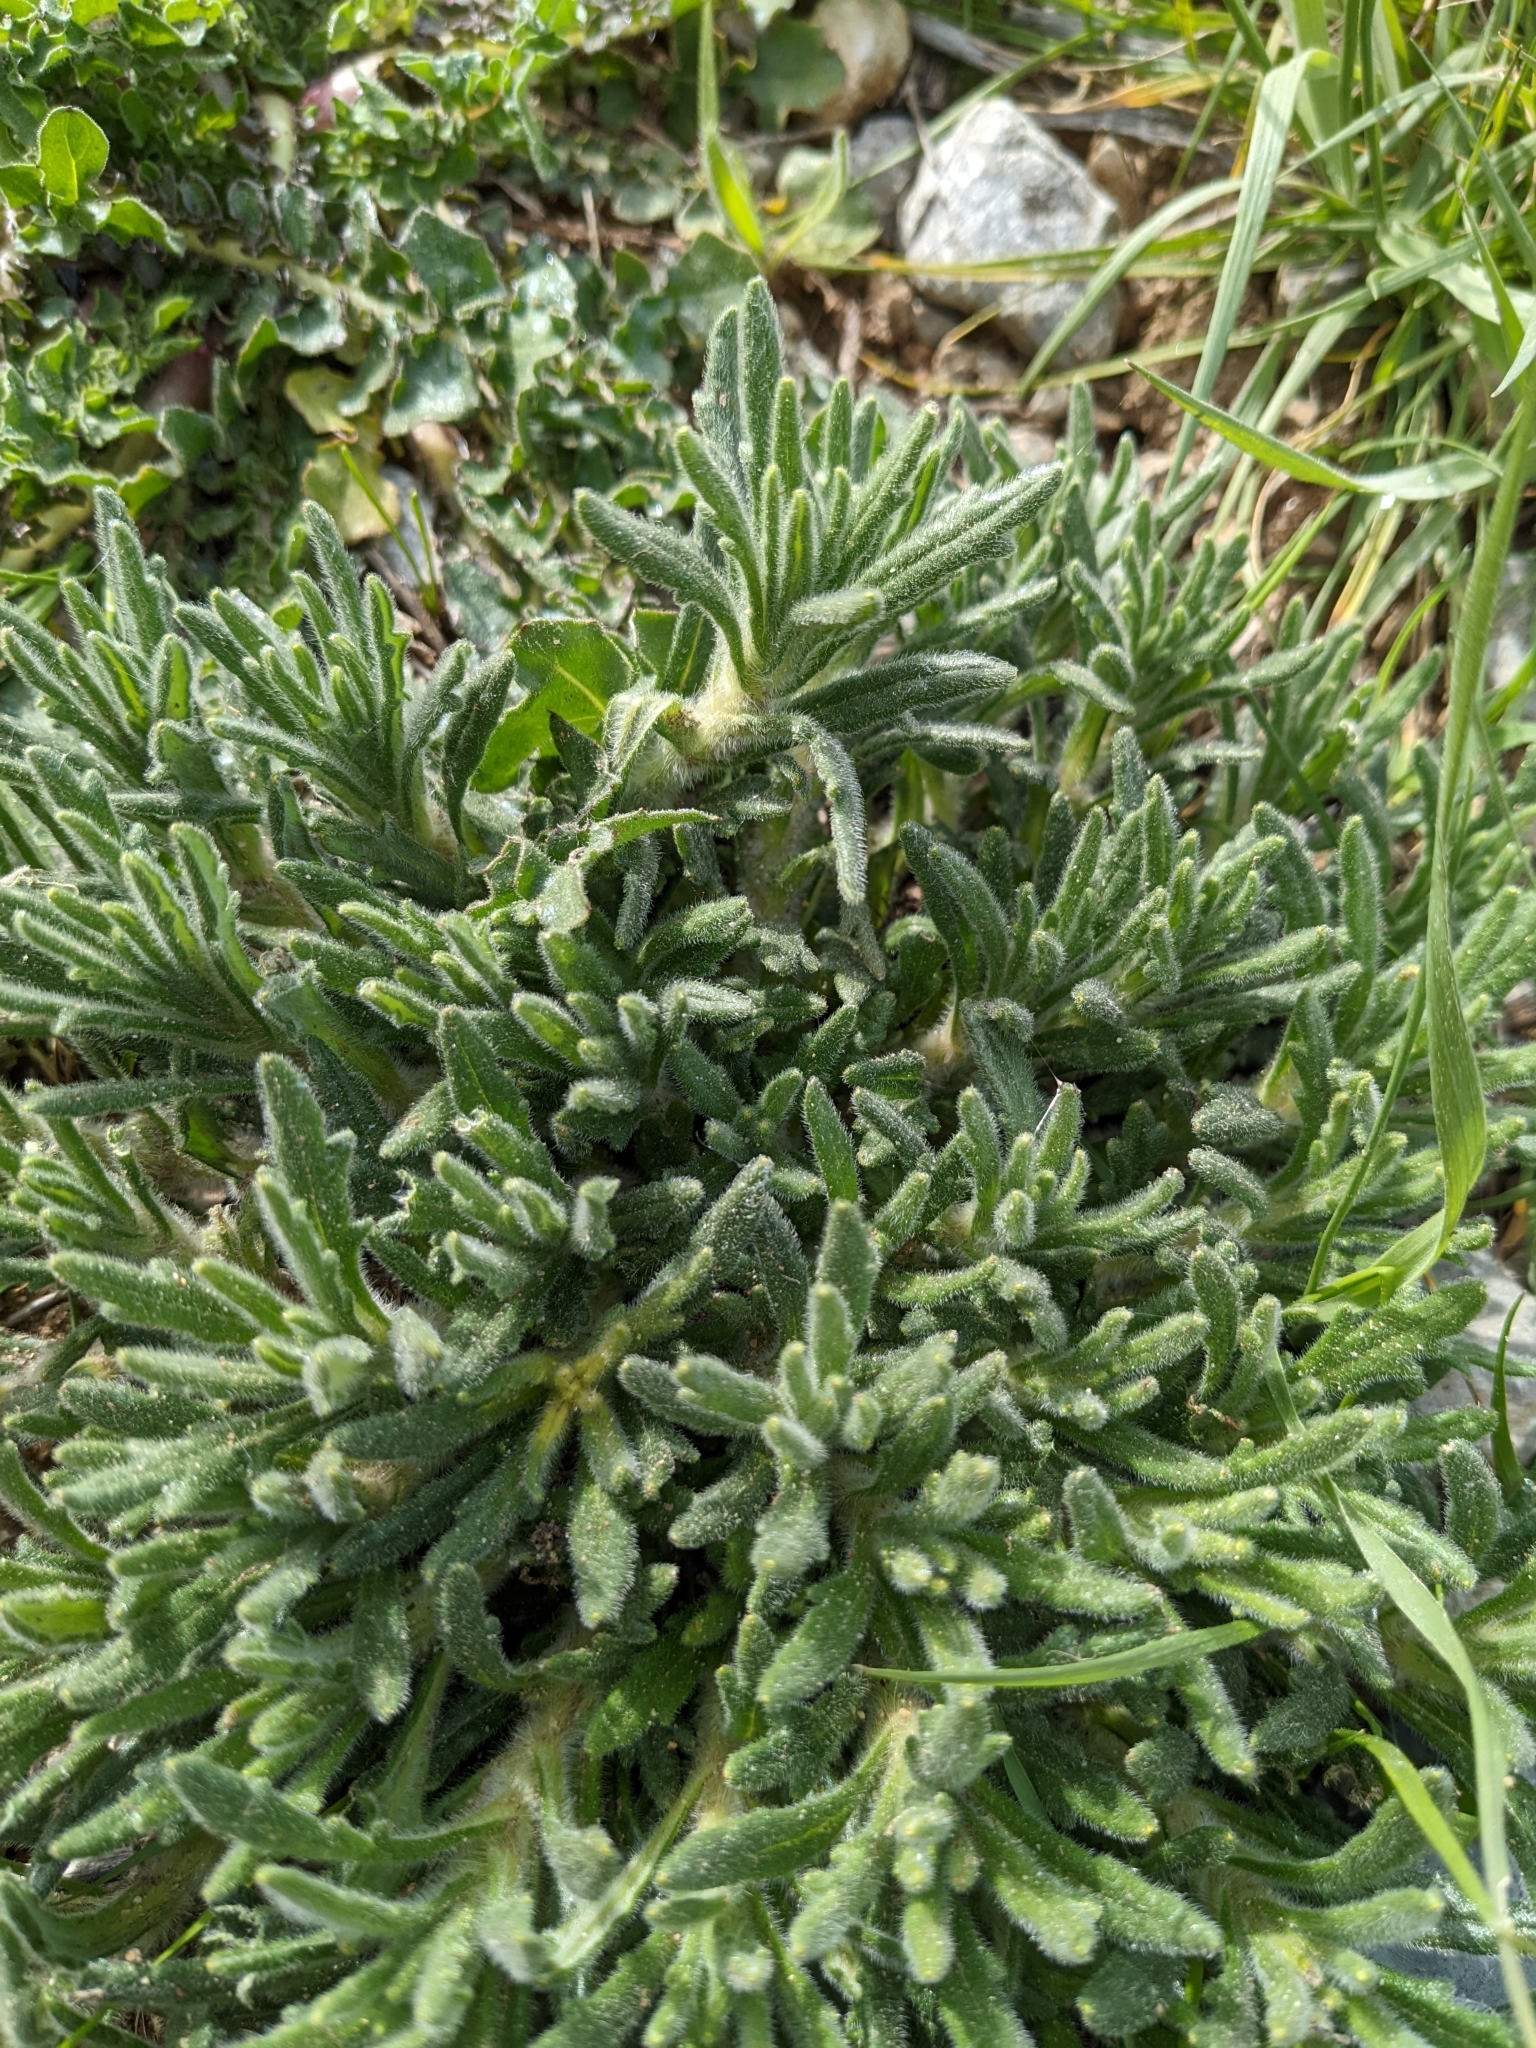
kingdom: Plantae
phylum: Tracheophyta
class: Magnoliopsida
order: Lamiales
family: Lamiaceae
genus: Ajuga
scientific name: Ajuga iva
